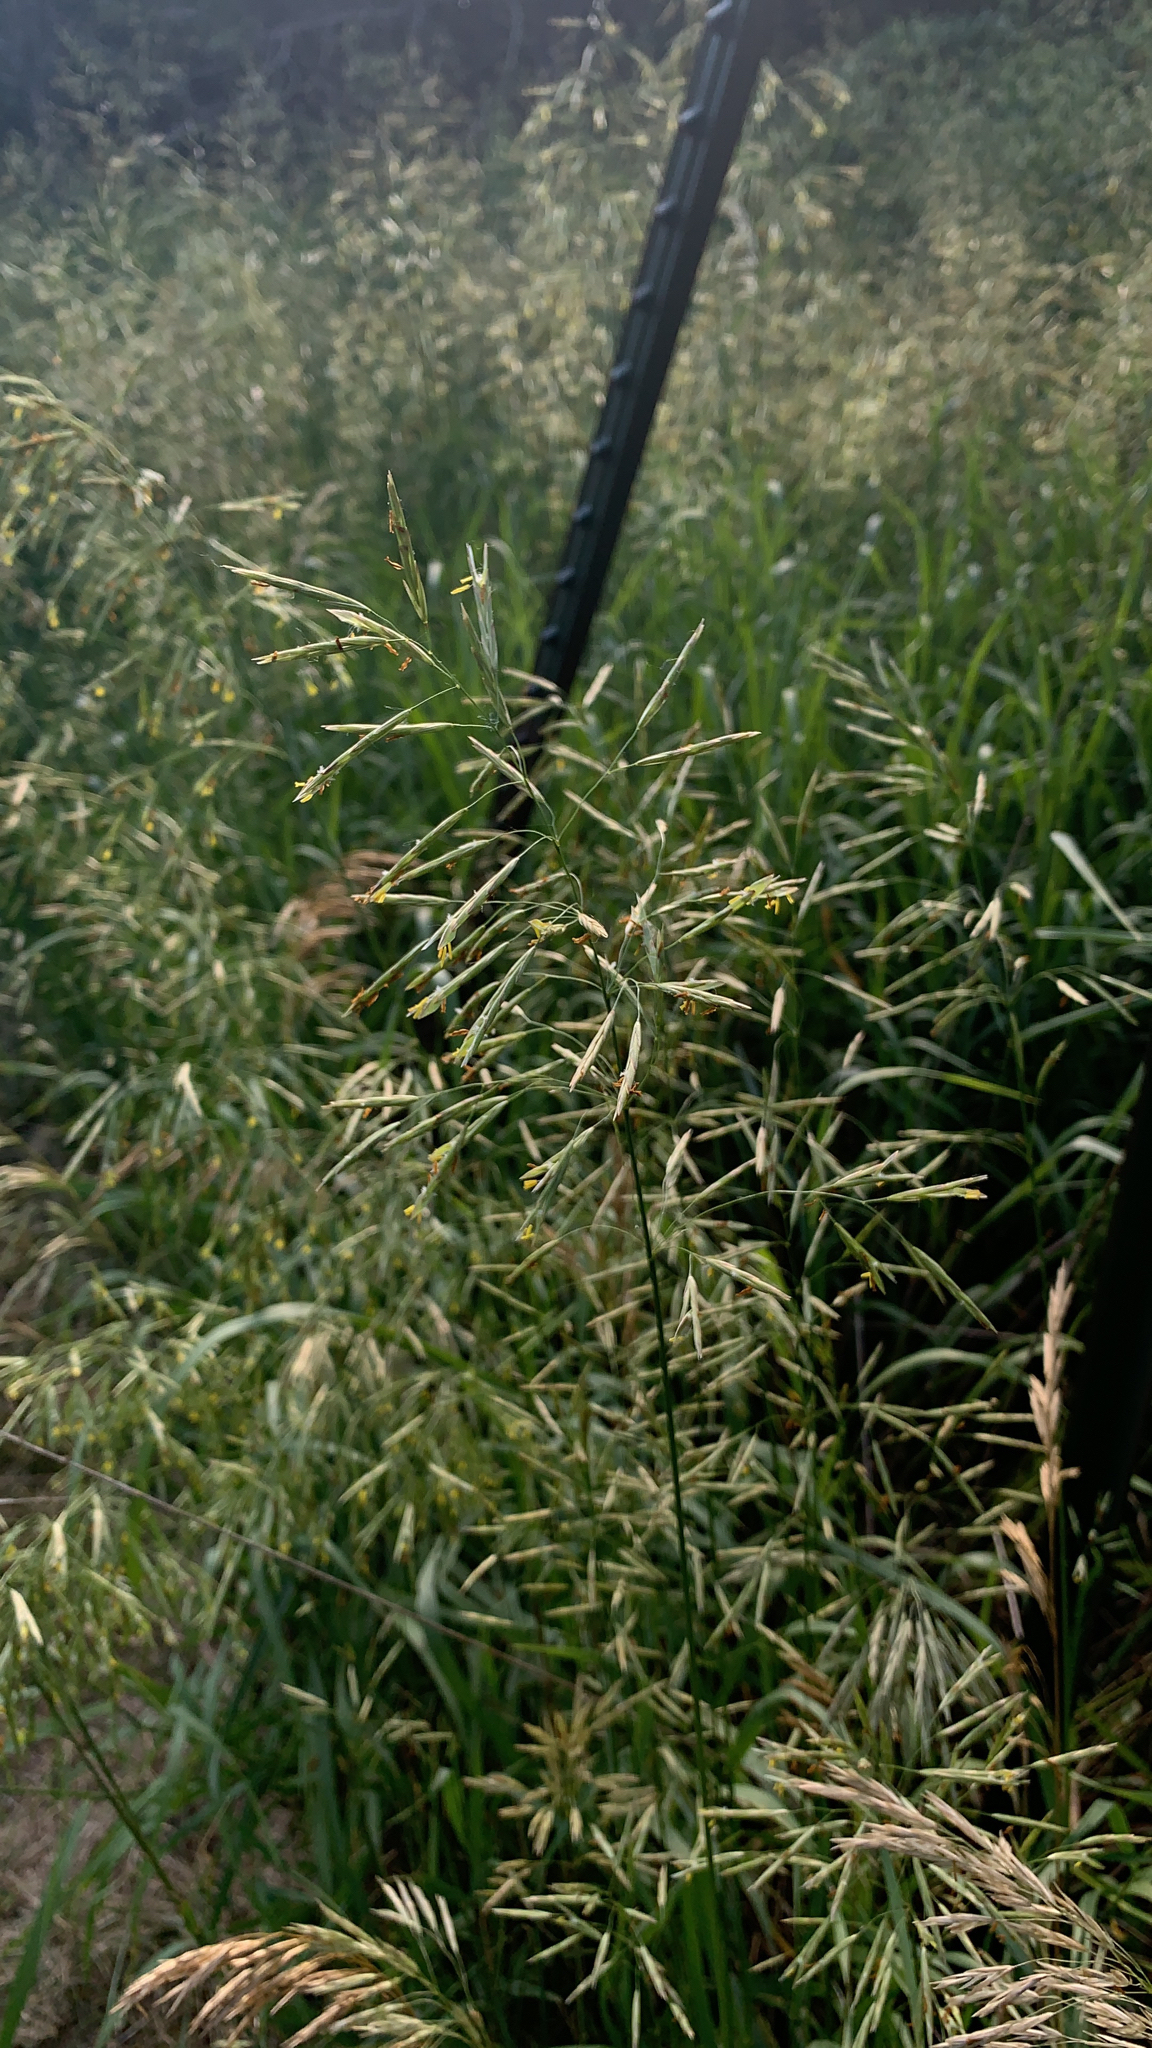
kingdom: Plantae
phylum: Tracheophyta
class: Liliopsida
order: Poales
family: Poaceae
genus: Bromus
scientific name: Bromus inermis
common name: Smooth brome
